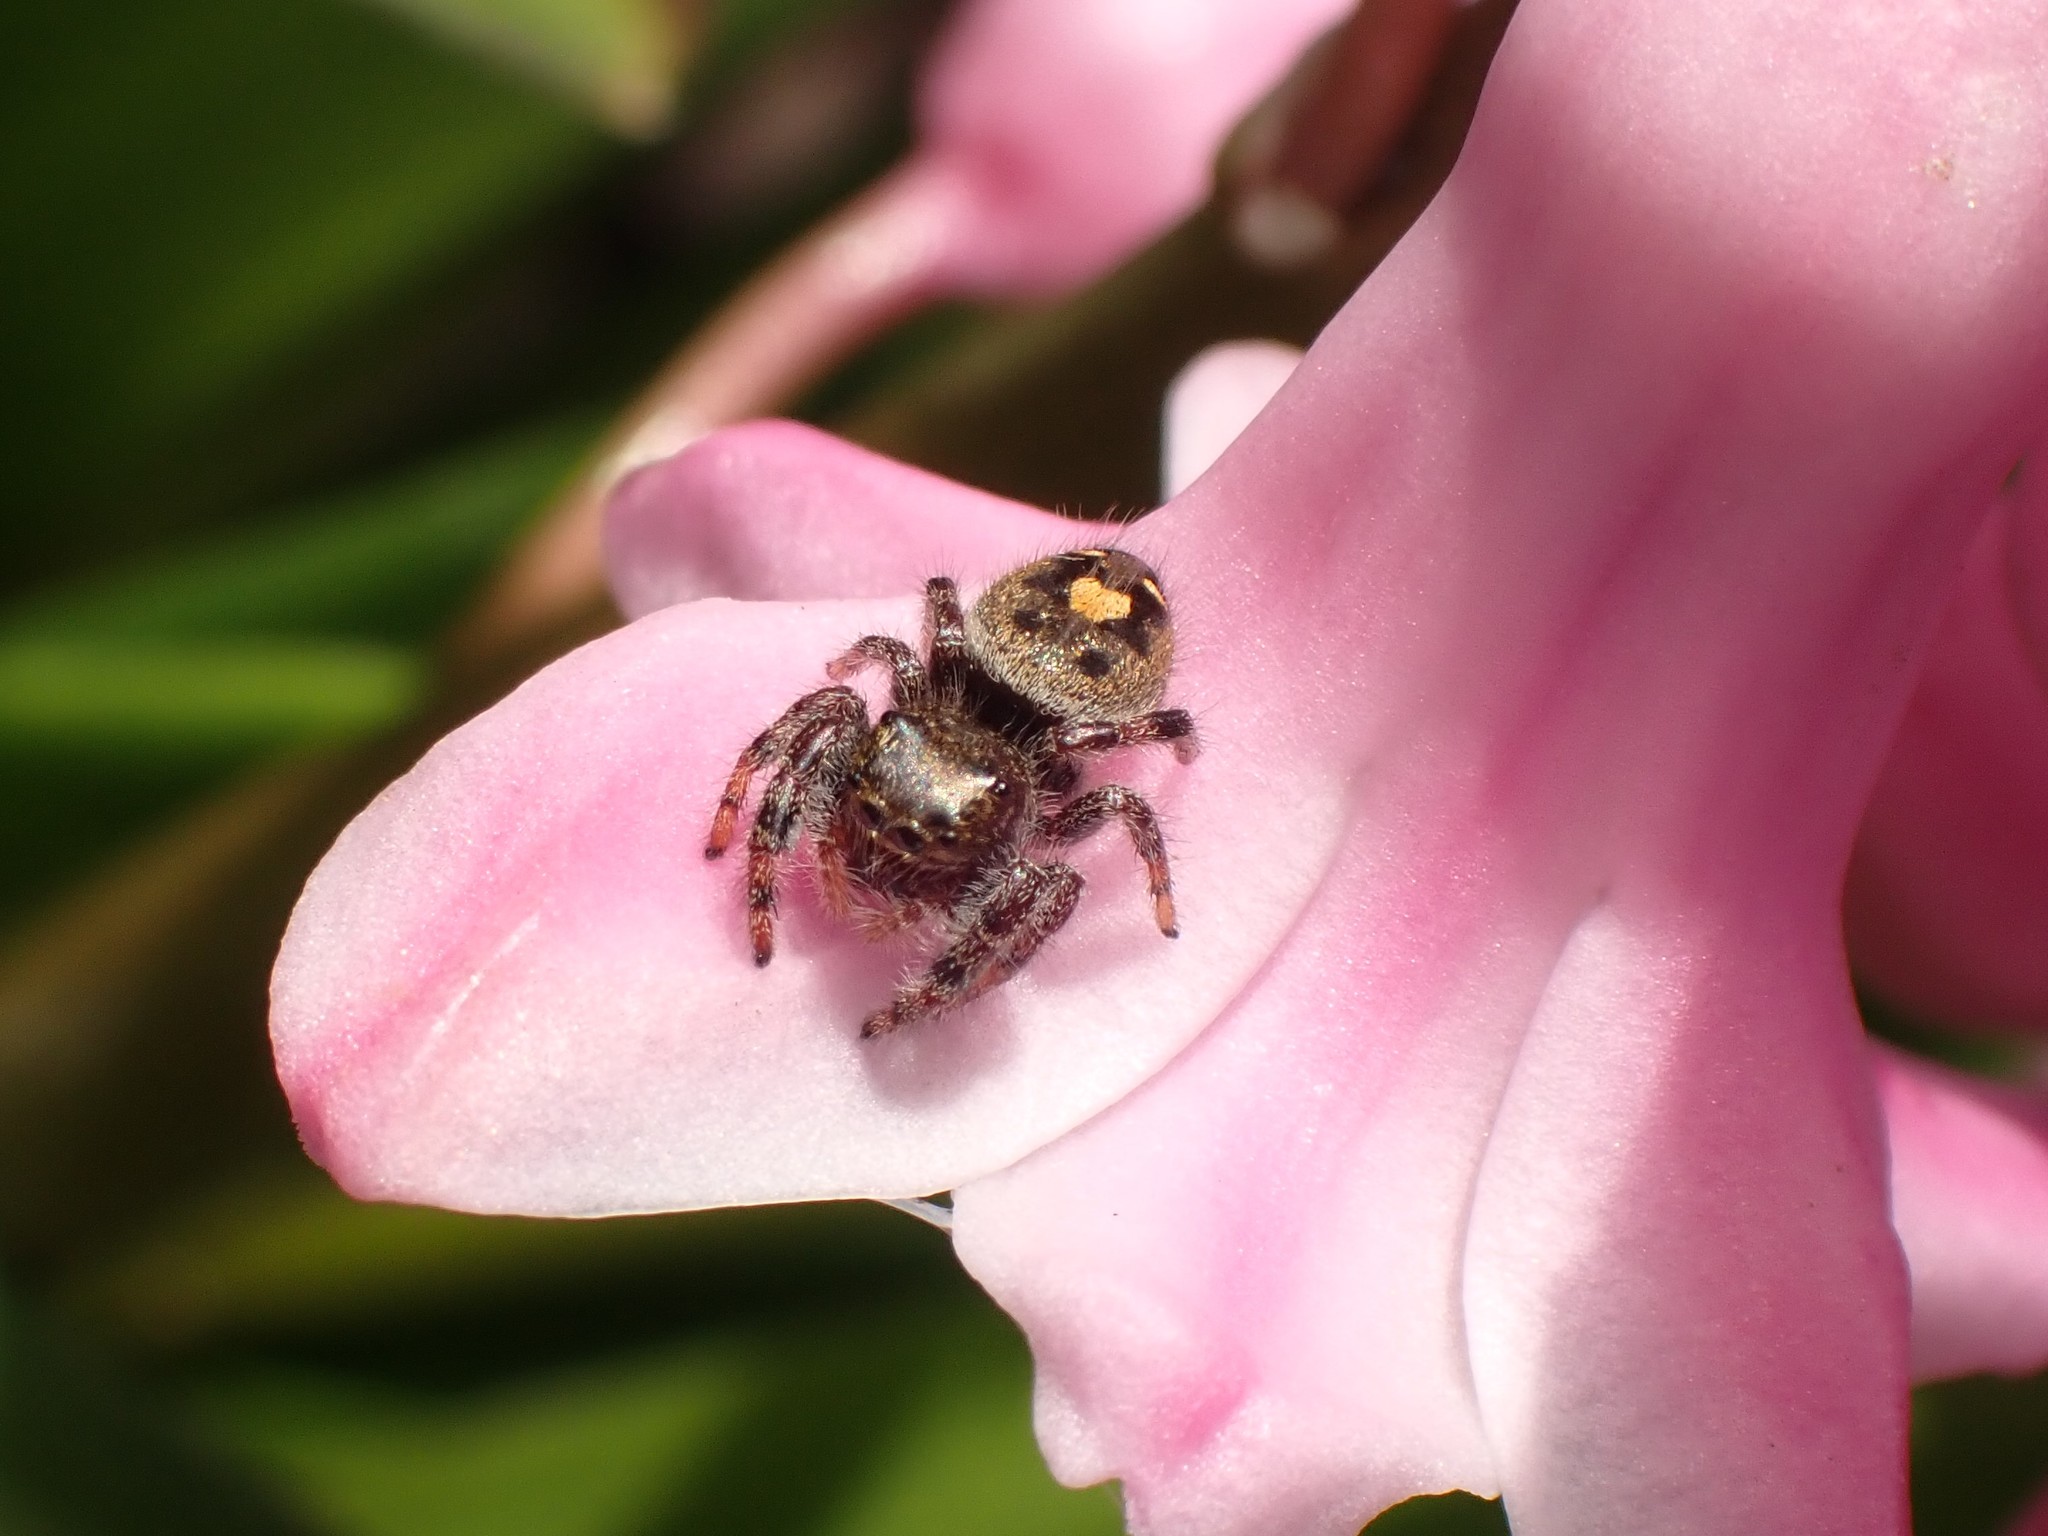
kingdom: Animalia
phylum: Arthropoda
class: Arachnida
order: Araneae
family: Salticidae
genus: Phidippus
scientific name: Phidippus audax
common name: Bold jumper
